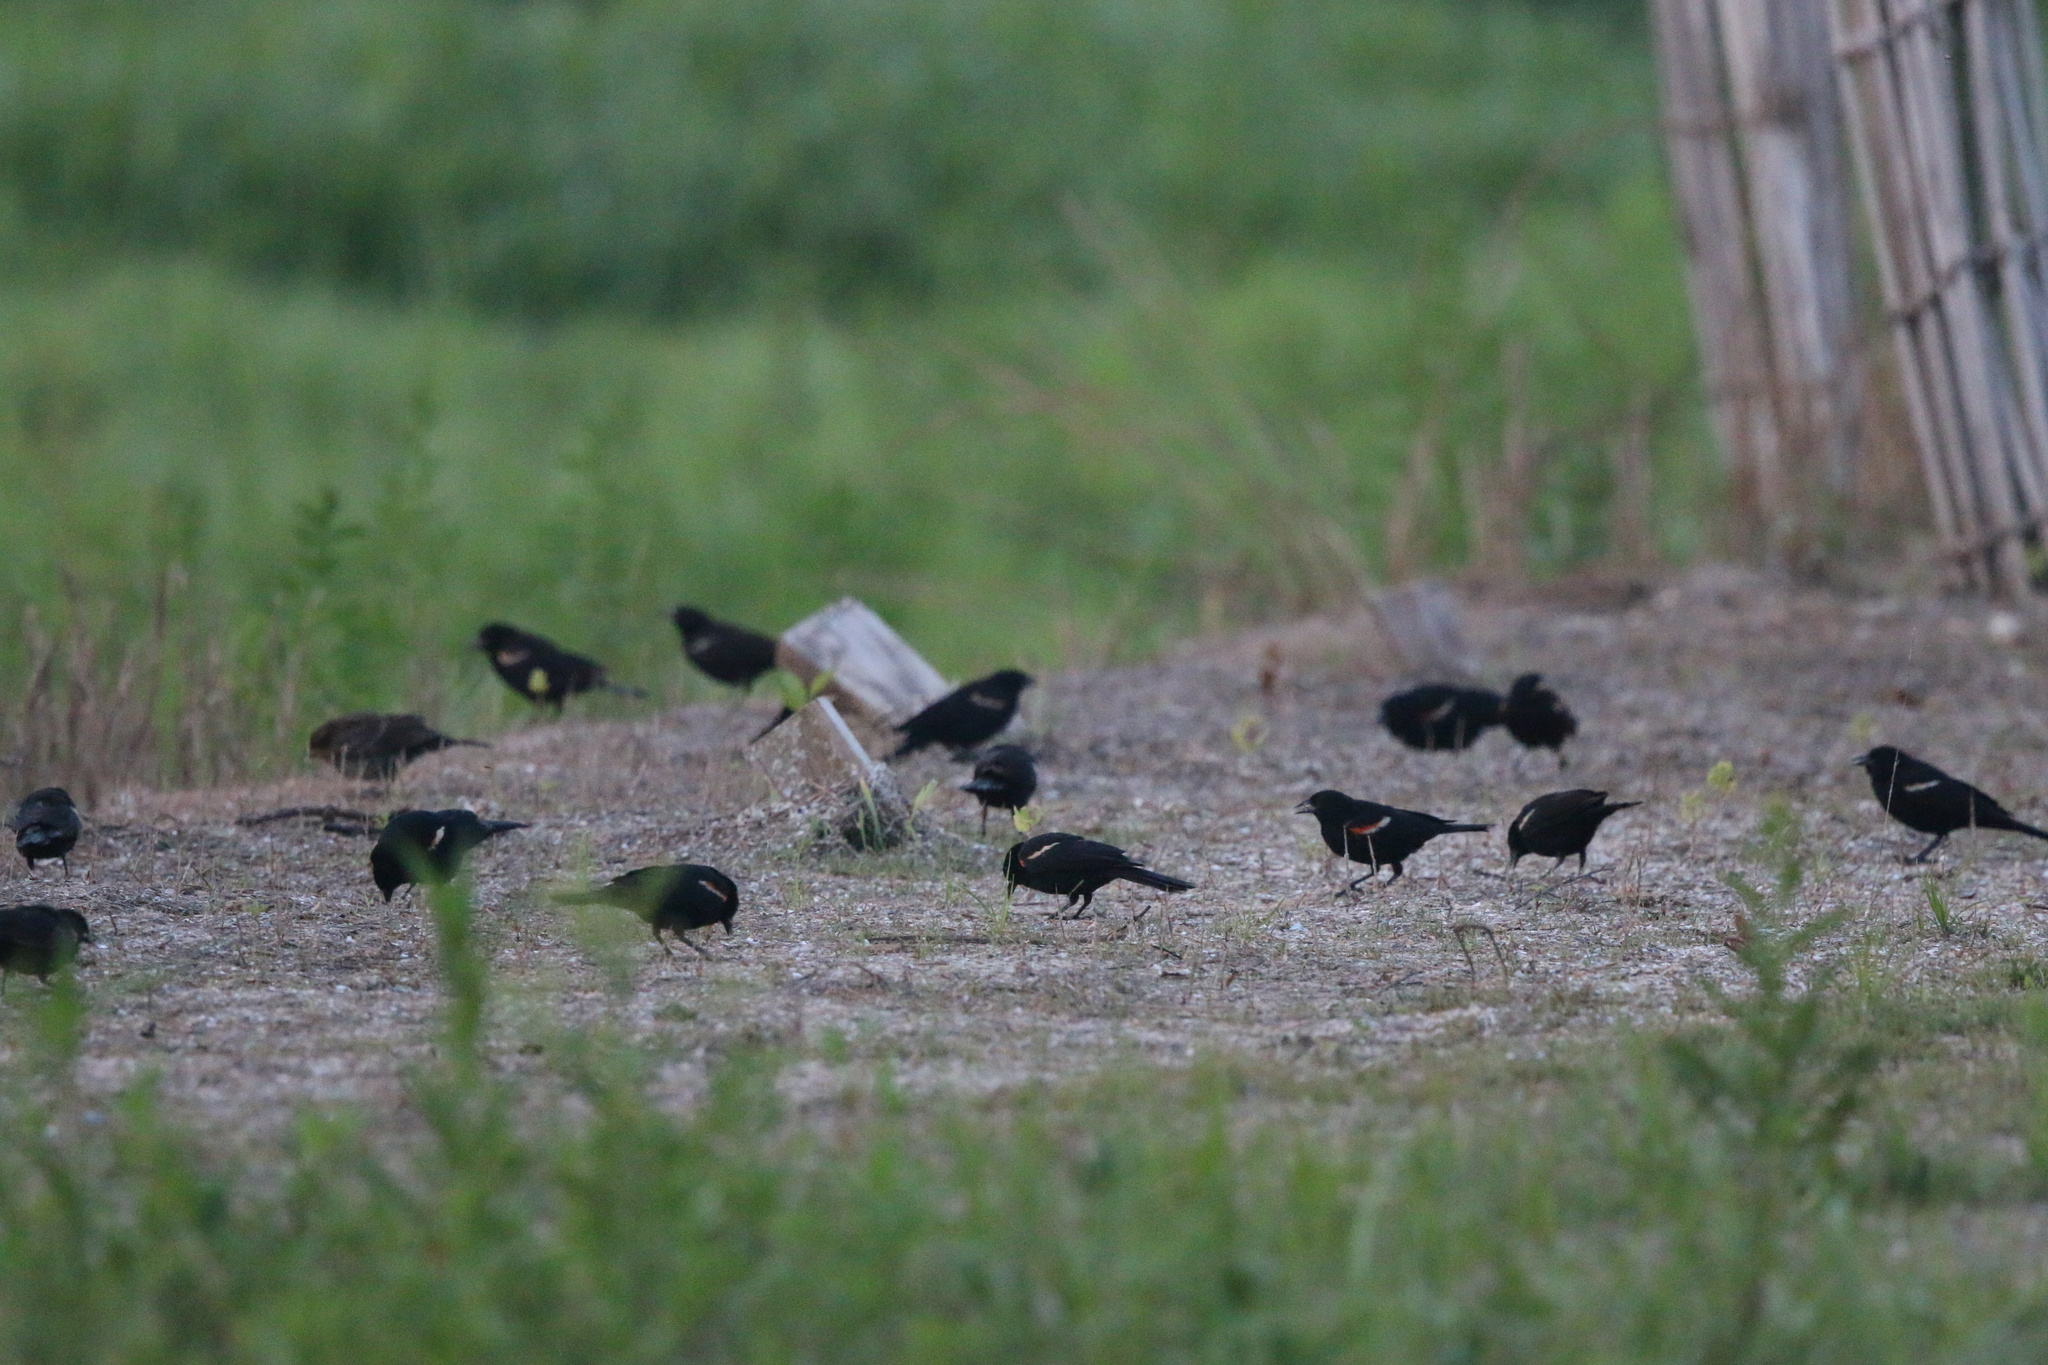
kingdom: Animalia
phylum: Chordata
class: Aves
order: Passeriformes
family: Icteridae
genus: Agelaius
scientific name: Agelaius phoeniceus
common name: Red-winged blackbird
